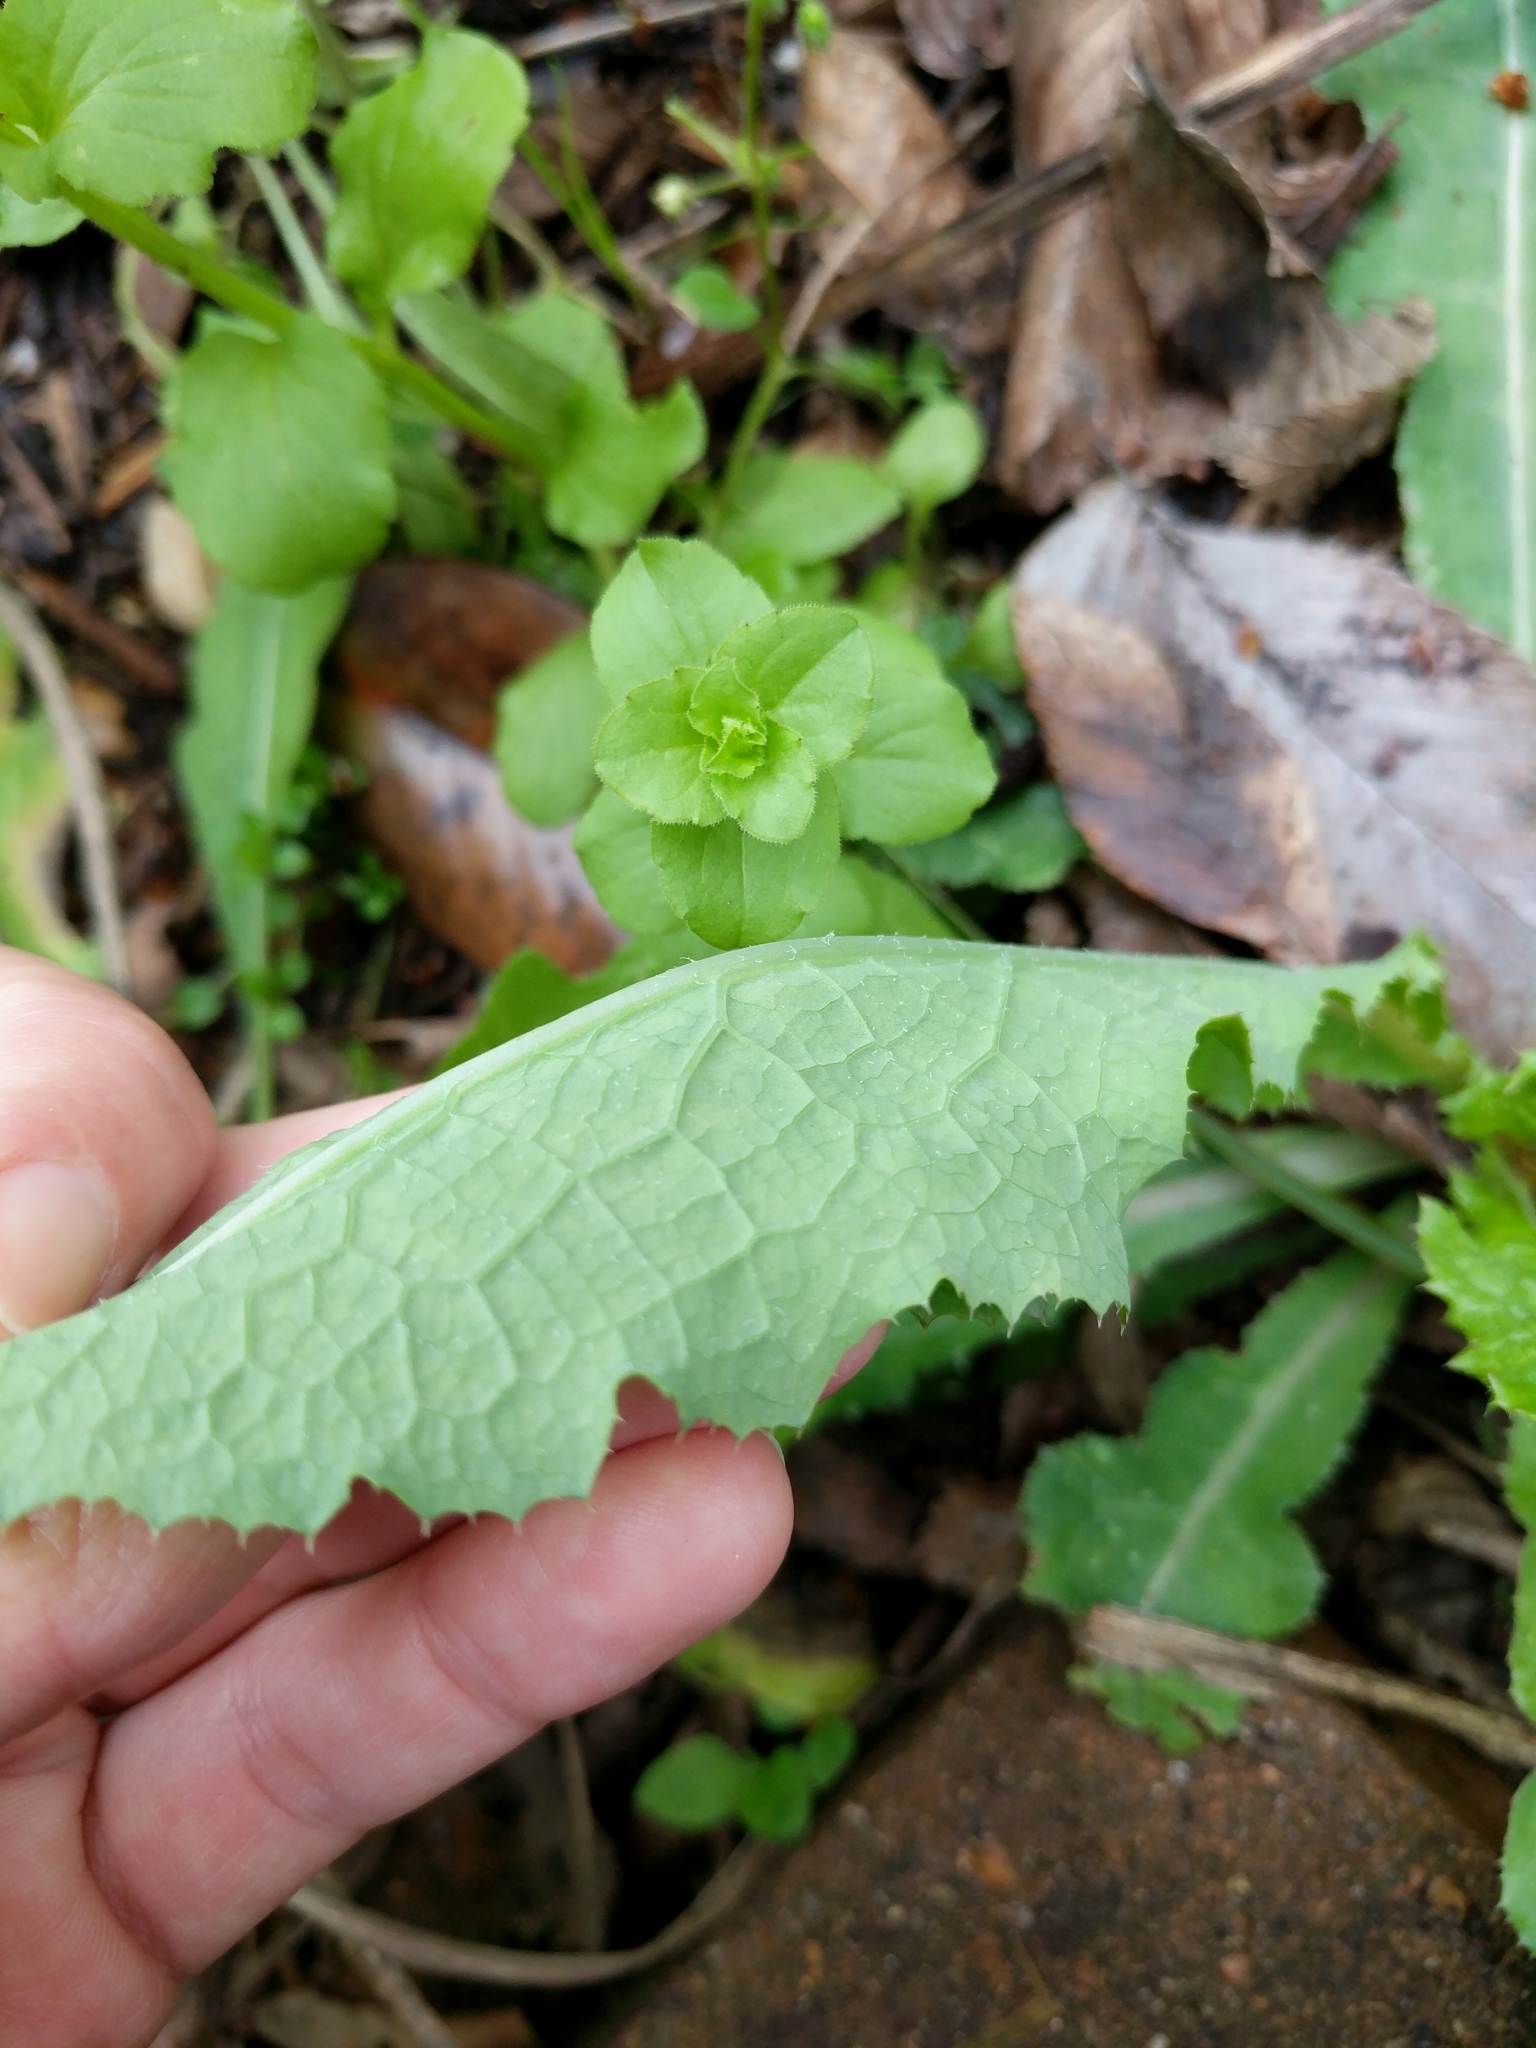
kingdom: Plantae
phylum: Tracheophyta
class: Magnoliopsida
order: Asterales
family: Asteraceae
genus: Sonchus
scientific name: Sonchus oleraceus
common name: Common sowthistle
